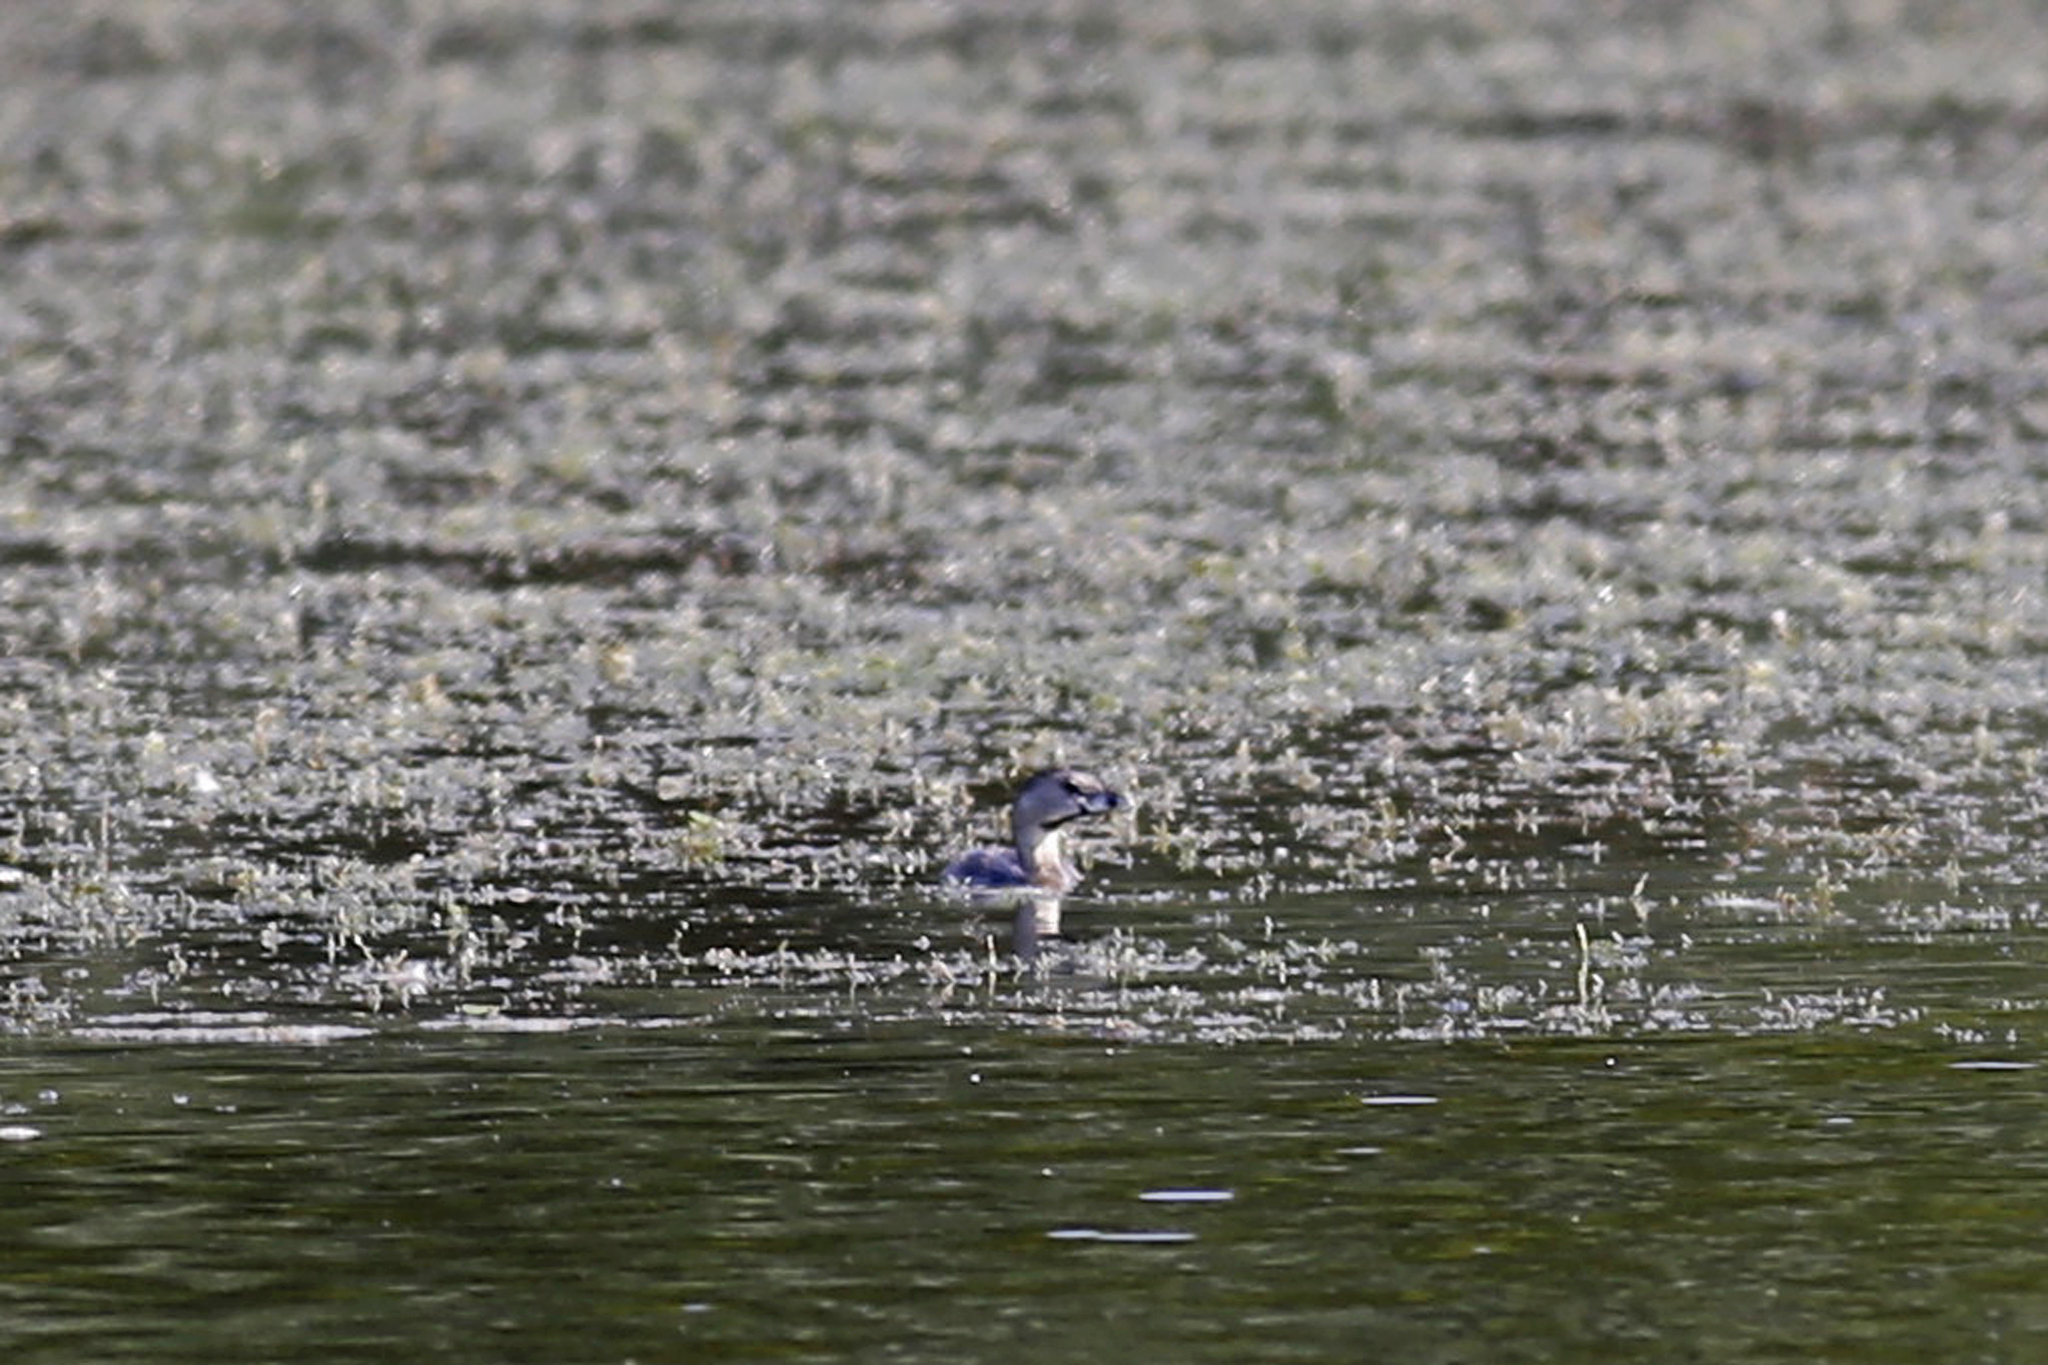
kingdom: Animalia
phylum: Chordata
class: Aves
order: Podicipediformes
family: Podicipedidae
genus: Podilymbus
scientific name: Podilymbus podiceps
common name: Pied-billed grebe
